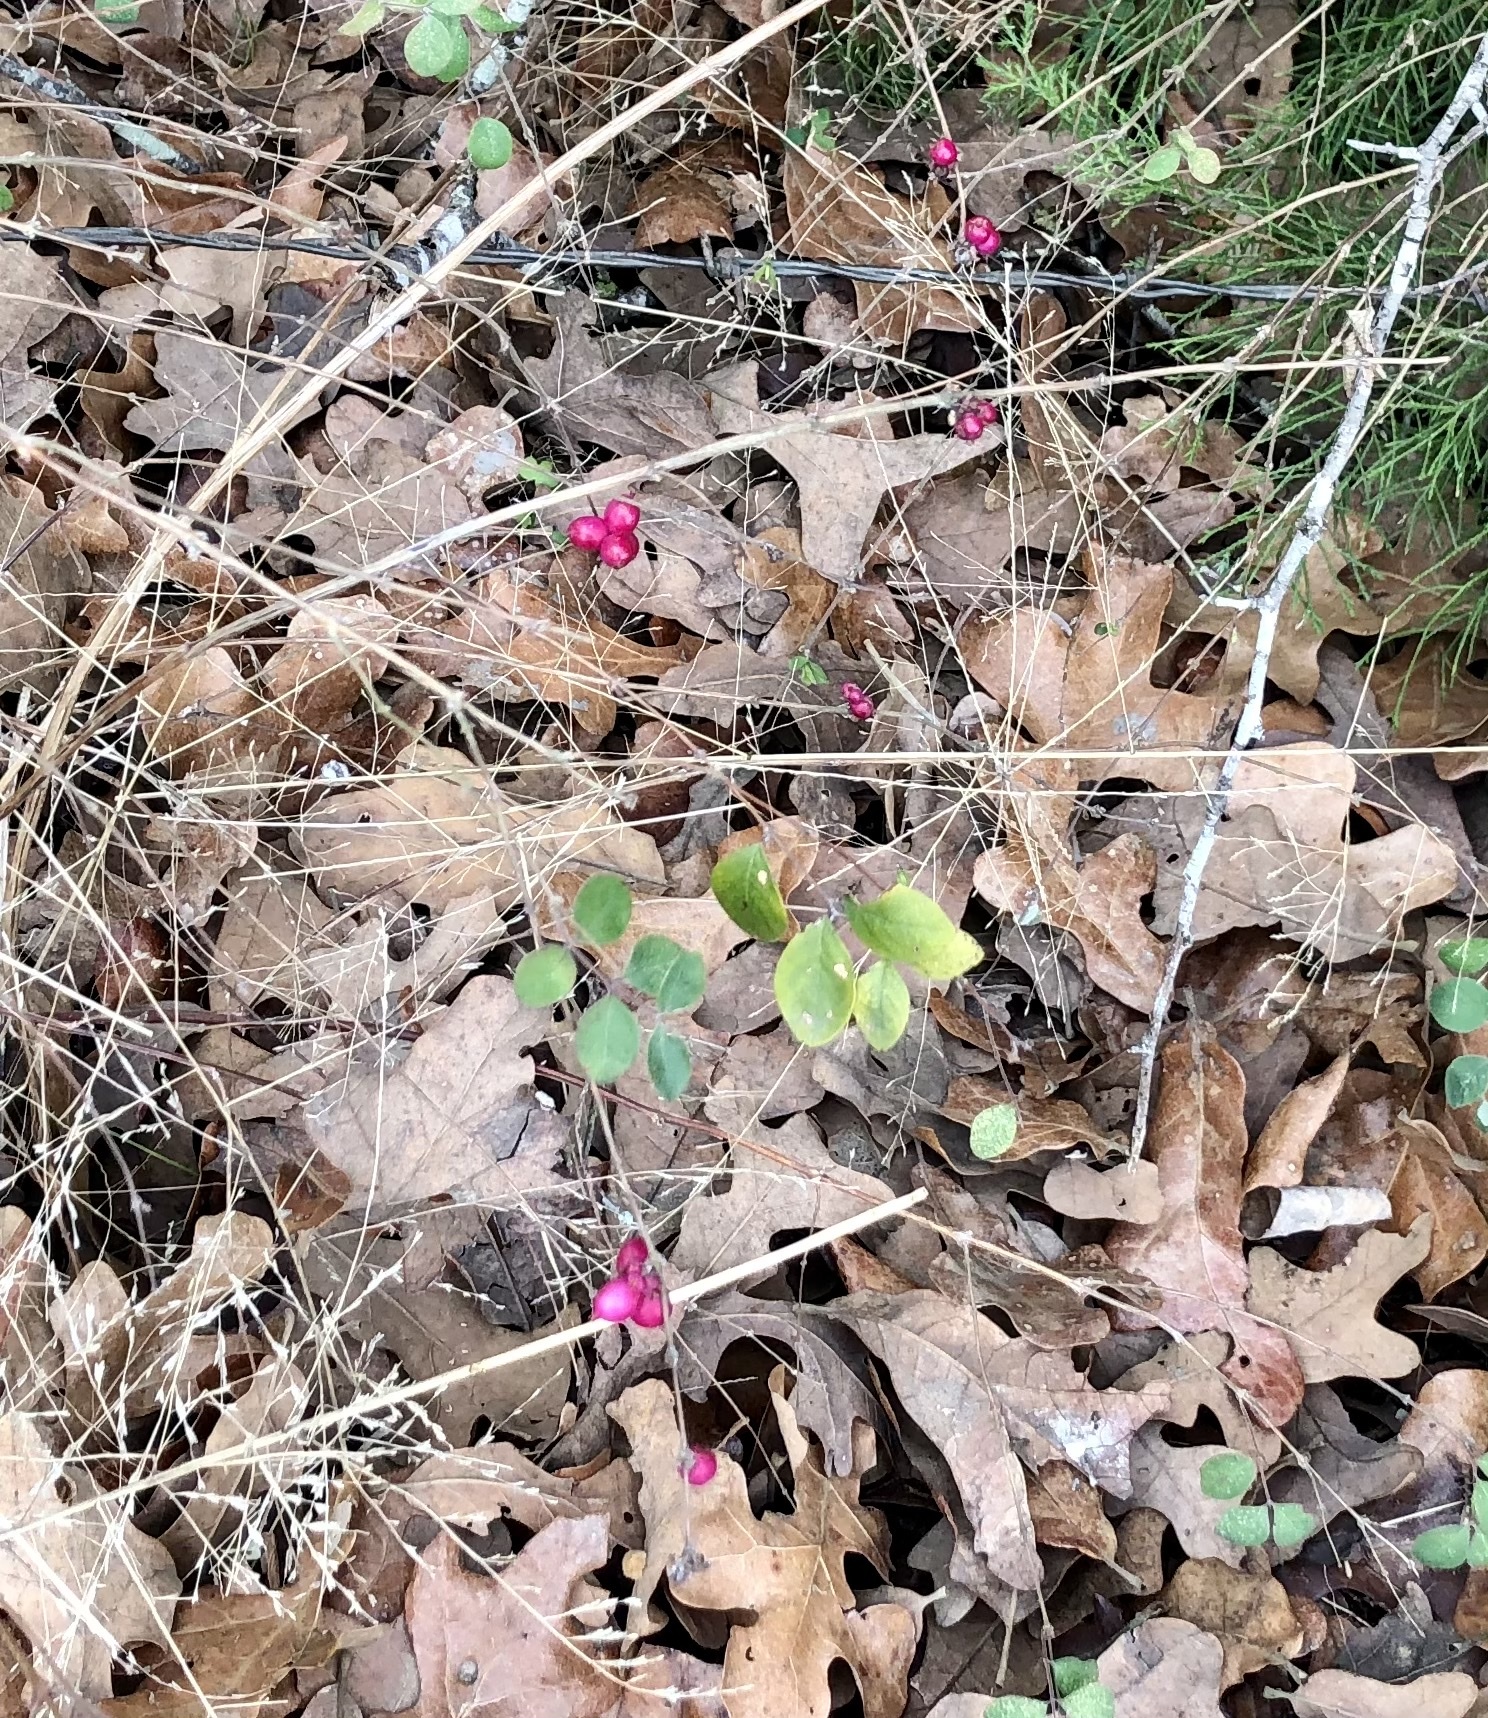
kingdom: Plantae
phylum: Tracheophyta
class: Magnoliopsida
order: Dipsacales
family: Caprifoliaceae
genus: Symphoricarpos
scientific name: Symphoricarpos orbiculatus
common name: Coralberry
